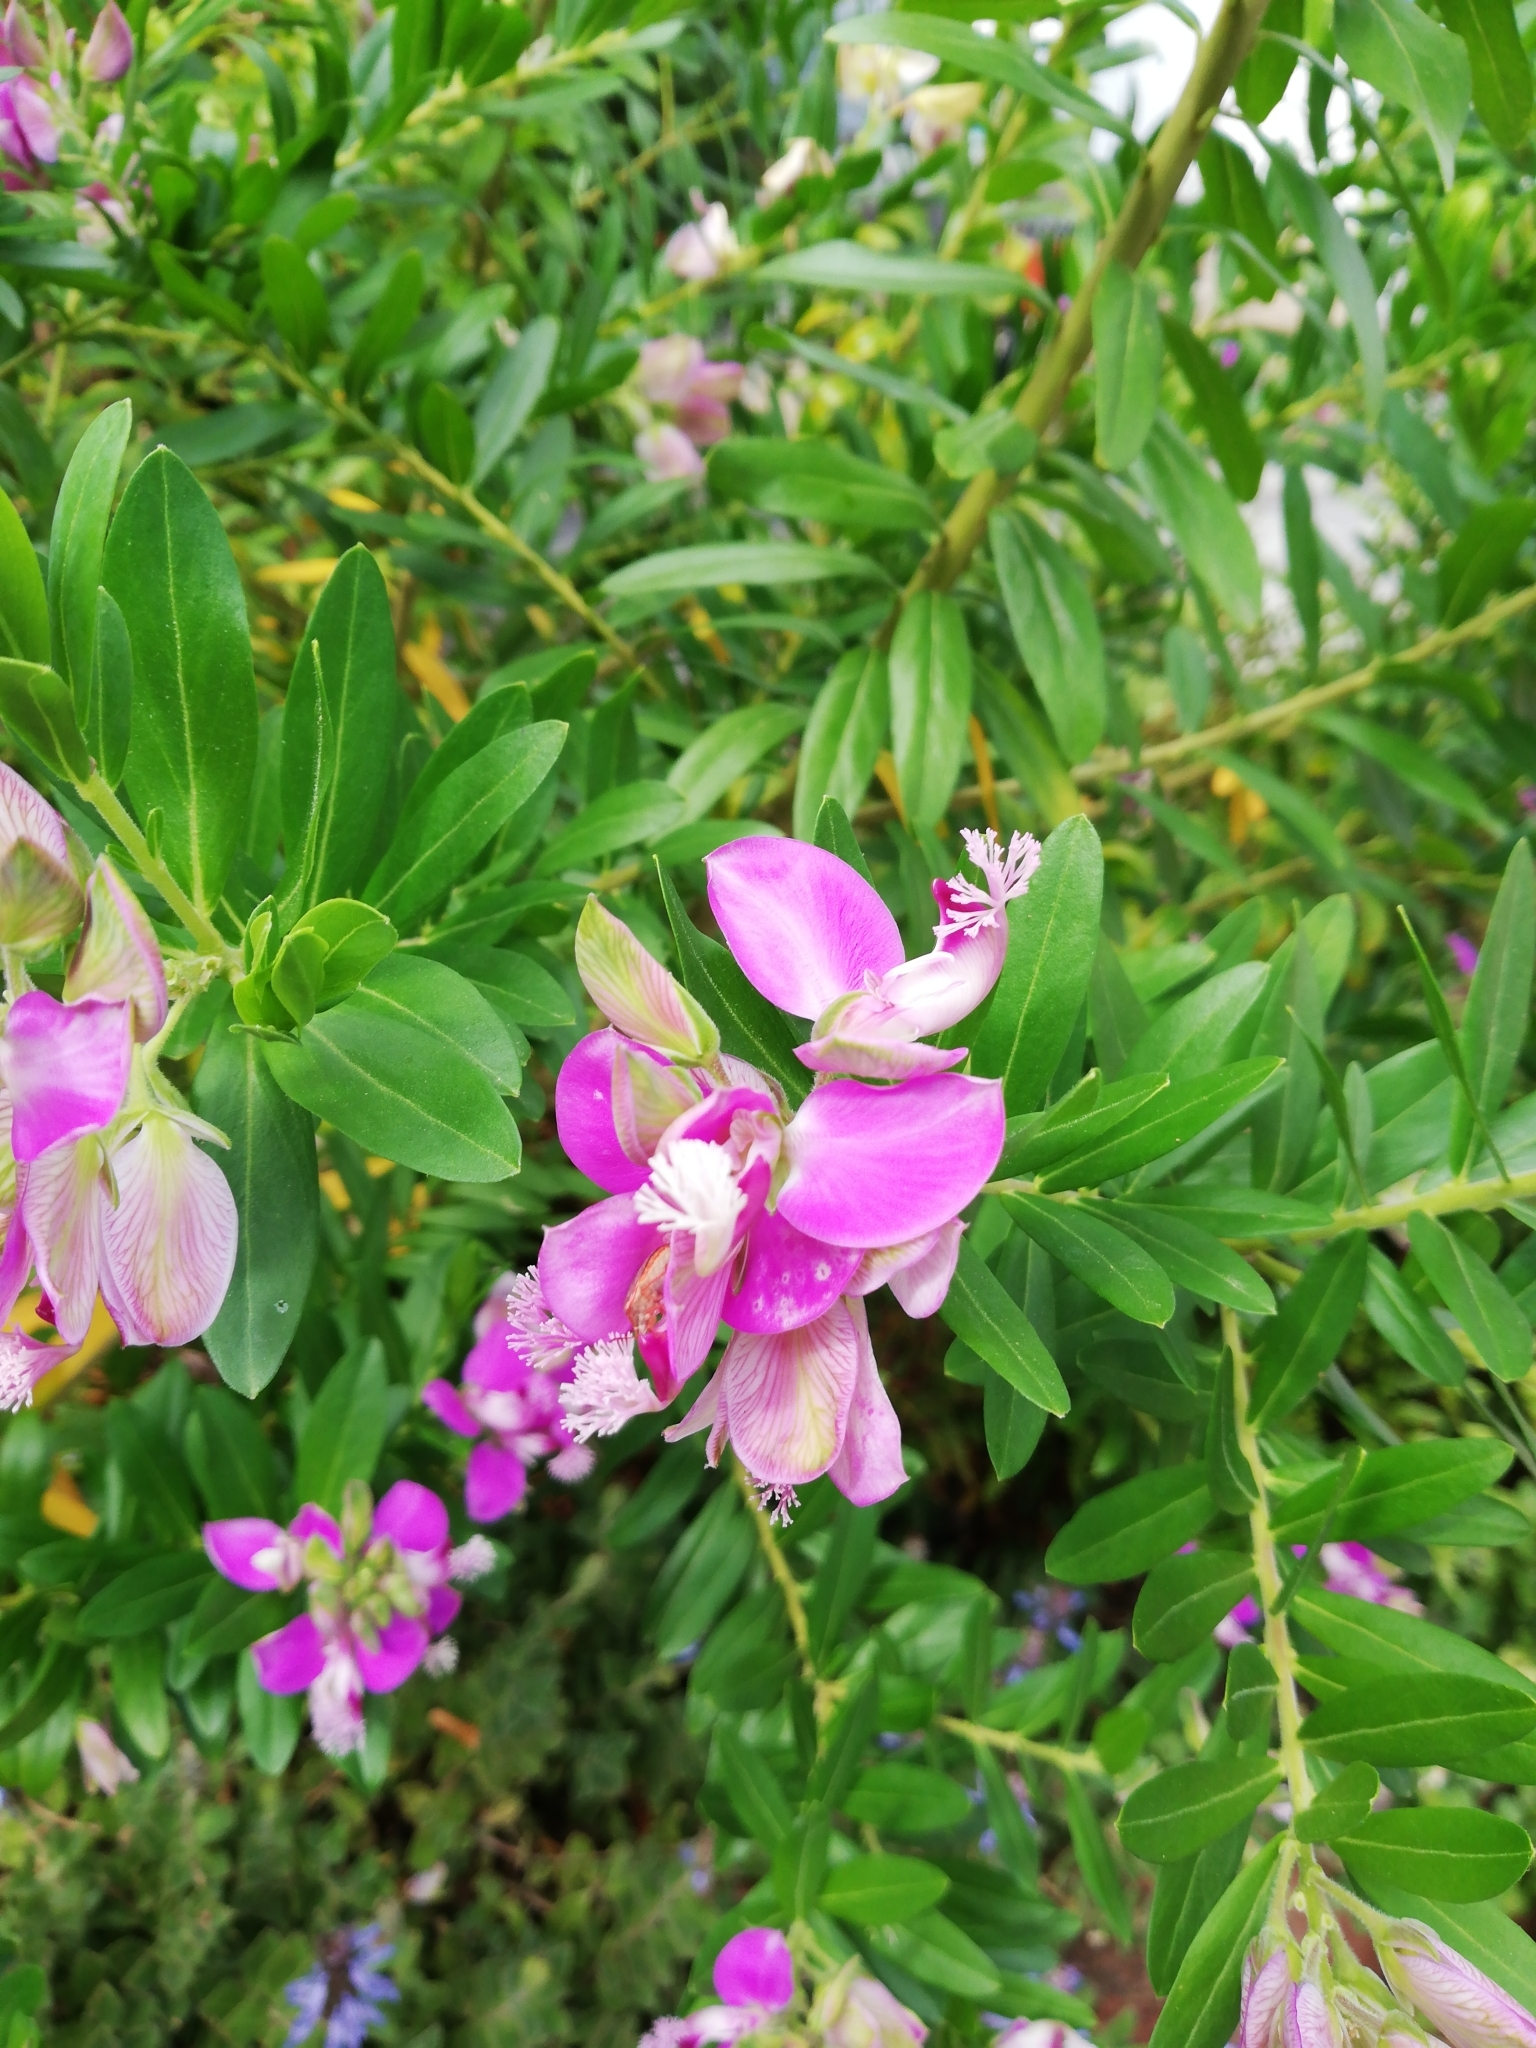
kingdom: Plantae
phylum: Tracheophyta
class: Magnoliopsida
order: Fabales
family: Polygalaceae
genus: Polygala
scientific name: Polygala myrtifolia
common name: Myrtle-leaf milkwort
